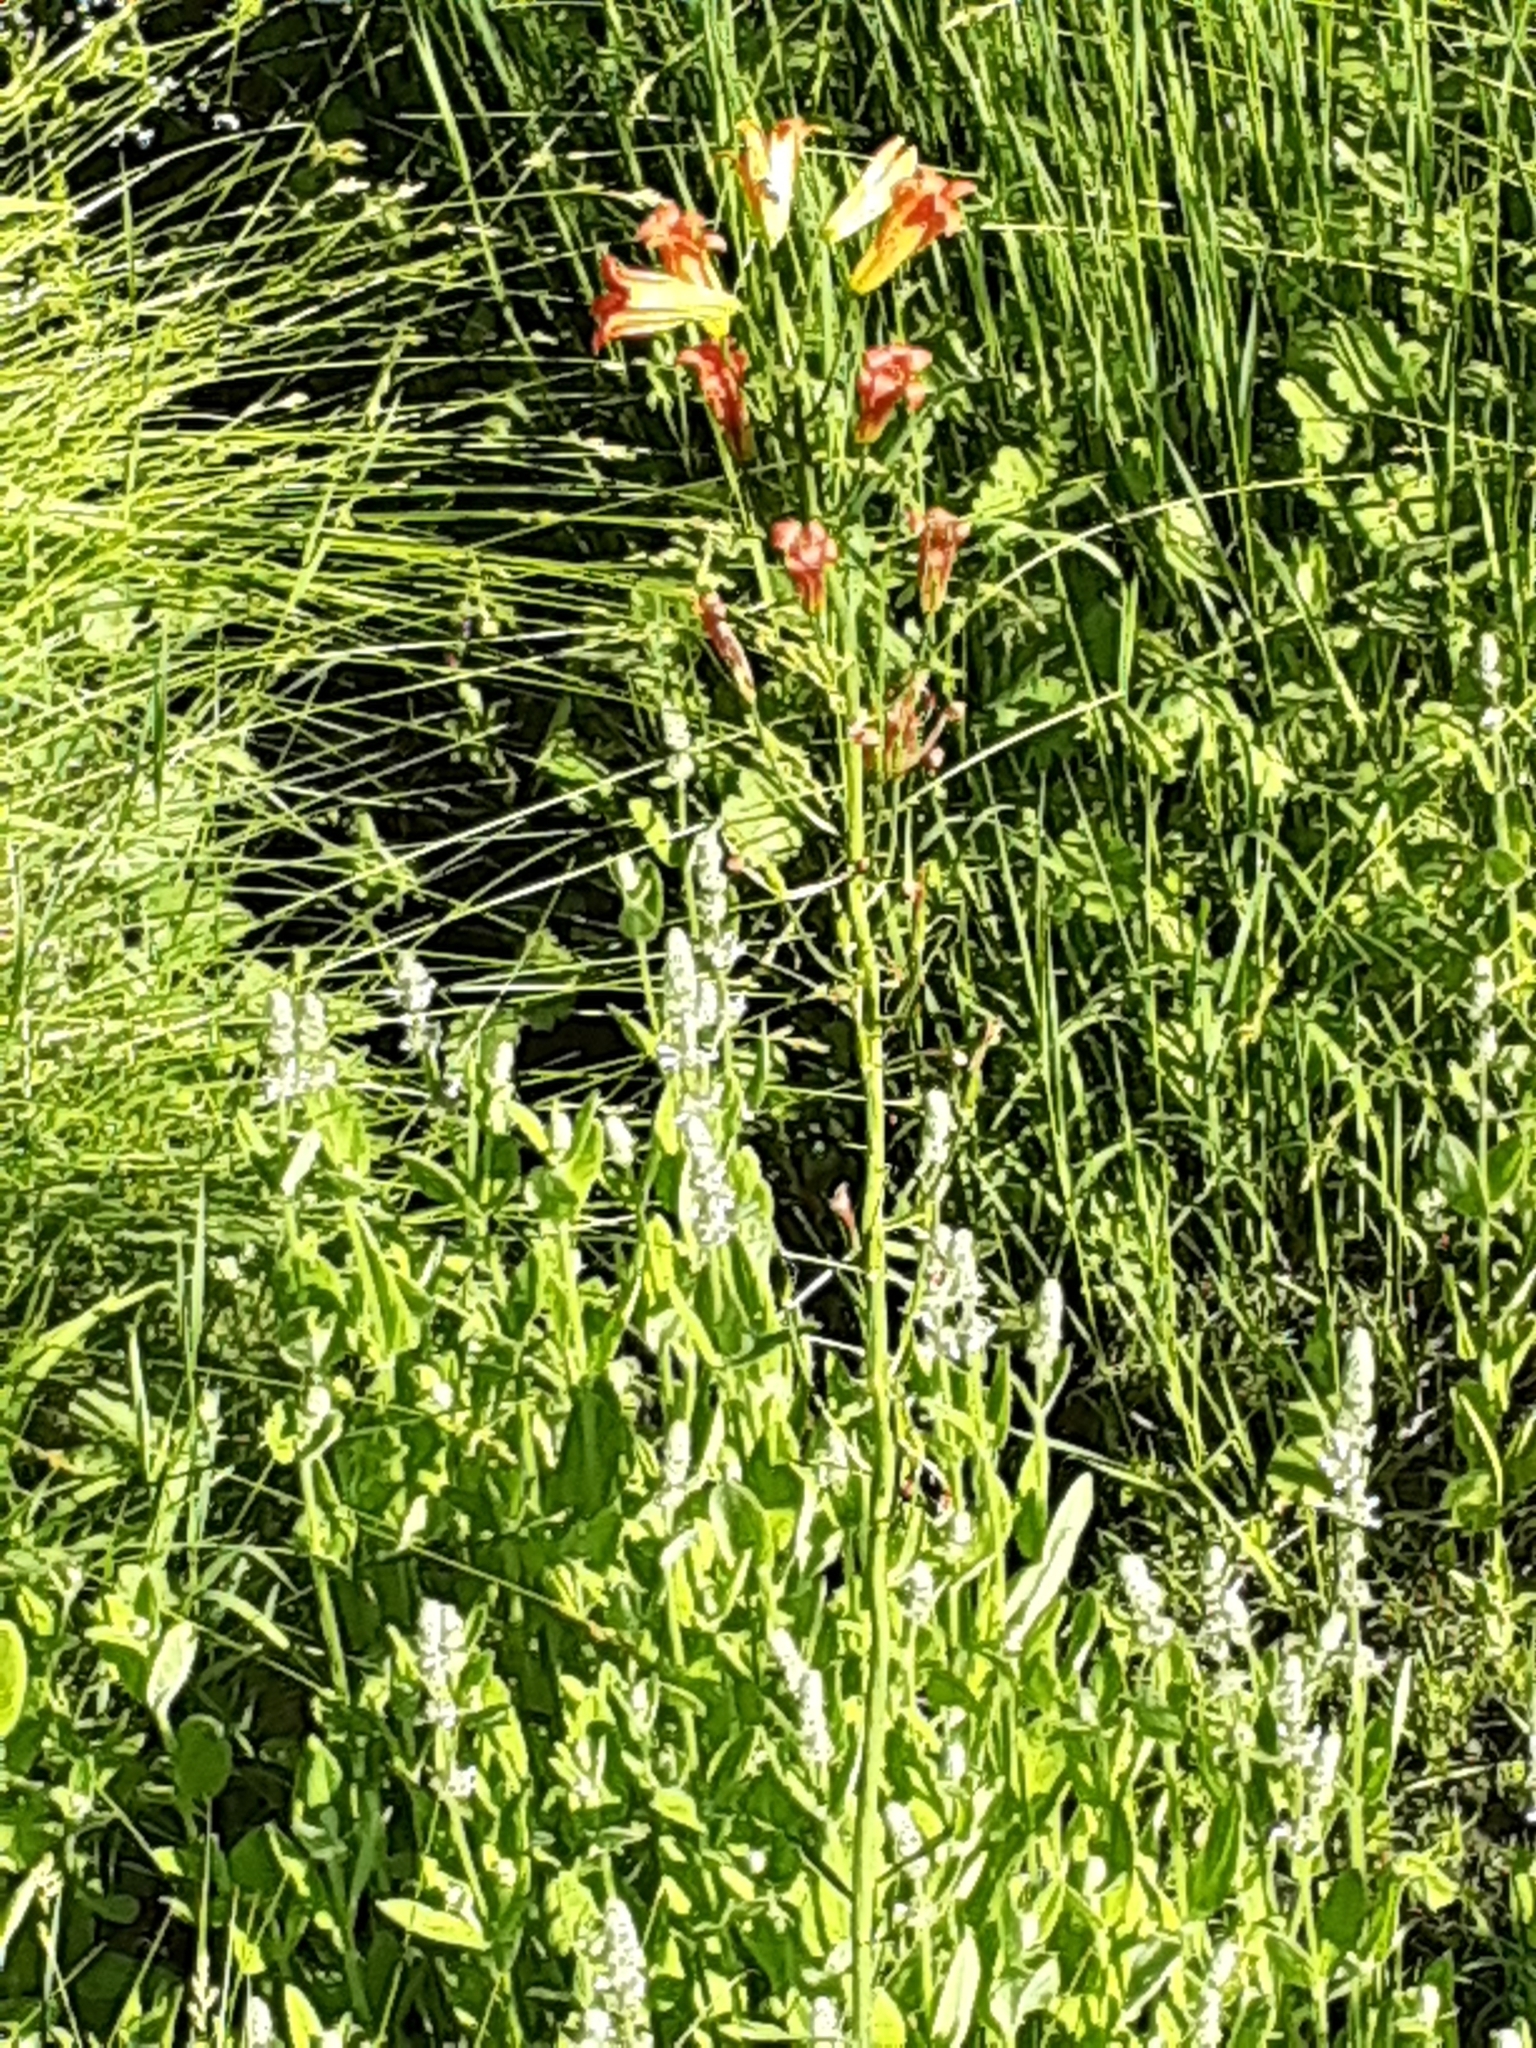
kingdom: Plantae
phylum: Tracheophyta
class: Liliopsida
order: Liliales
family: Liliaceae
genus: Lilium
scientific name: Lilium parvum
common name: Alpine lily
